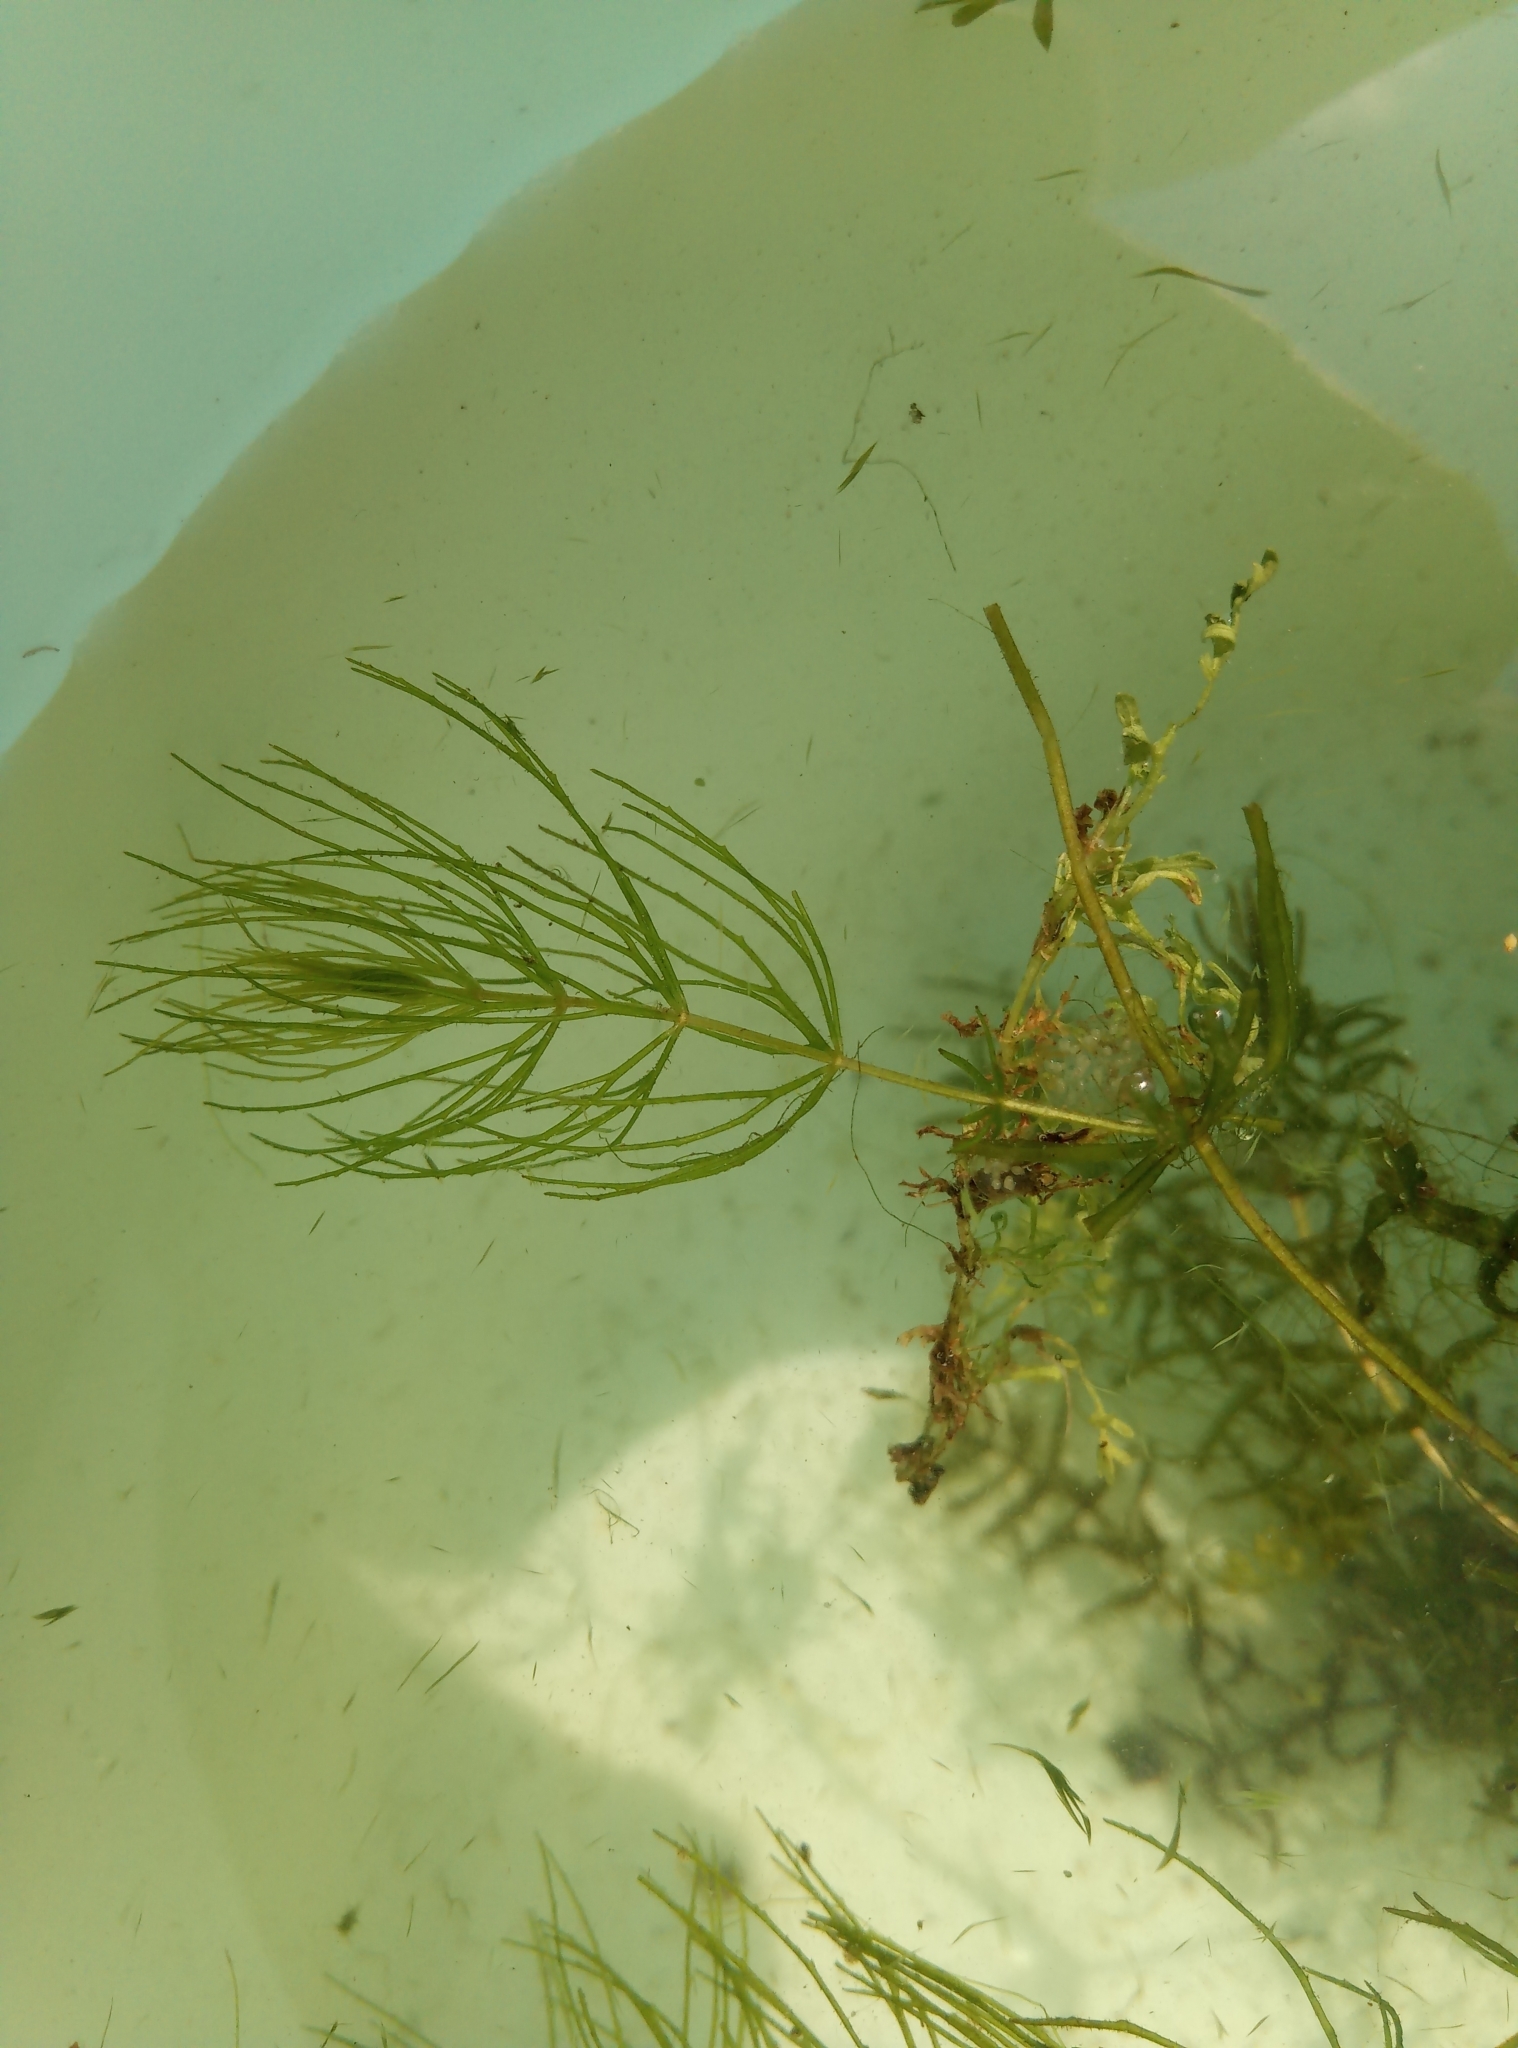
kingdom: Plantae
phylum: Tracheophyta
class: Magnoliopsida
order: Ceratophyllales
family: Ceratophyllaceae
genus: Ceratophyllum
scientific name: Ceratophyllum demersum
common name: Rigid hornwort
